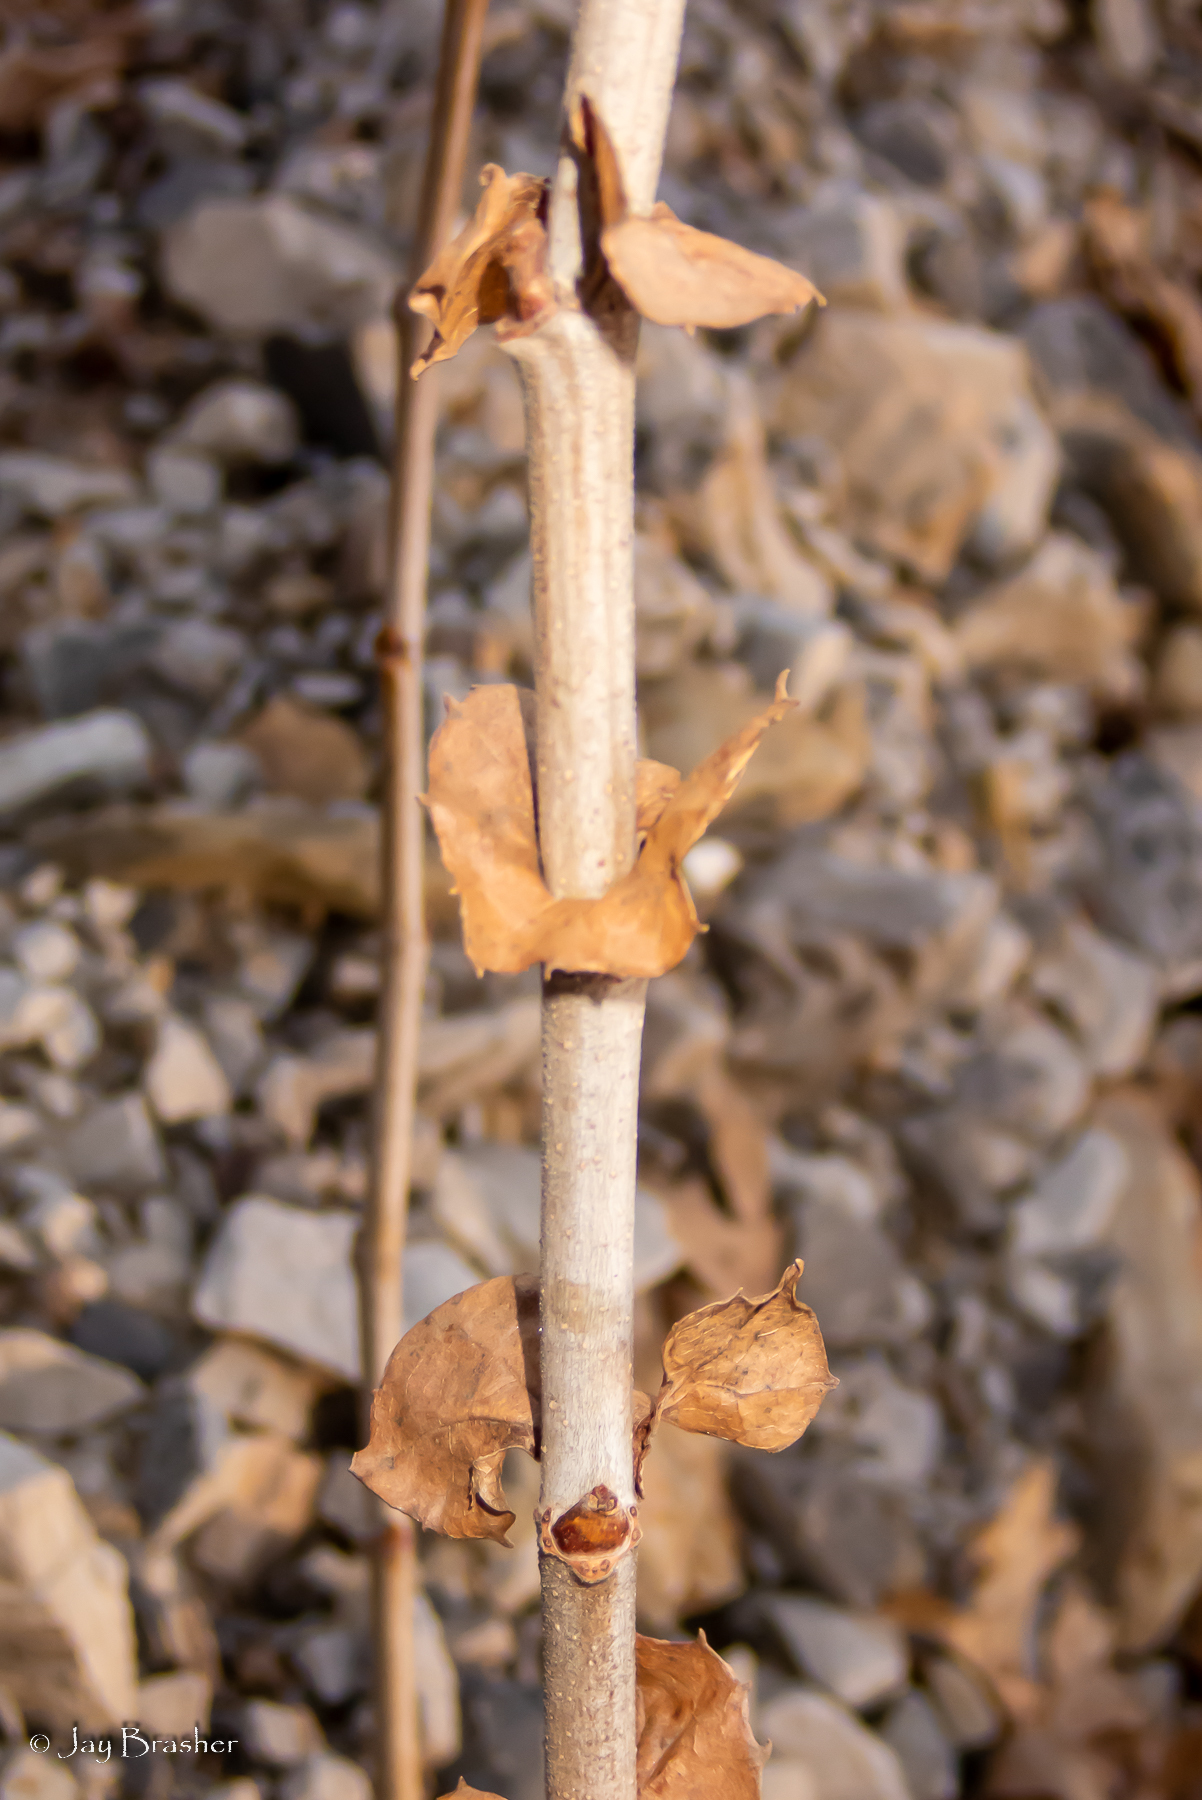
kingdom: Plantae
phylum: Tracheophyta
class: Magnoliopsida
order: Proteales
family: Platanaceae
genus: Platanus
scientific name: Platanus occidentalis
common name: American sycamore
